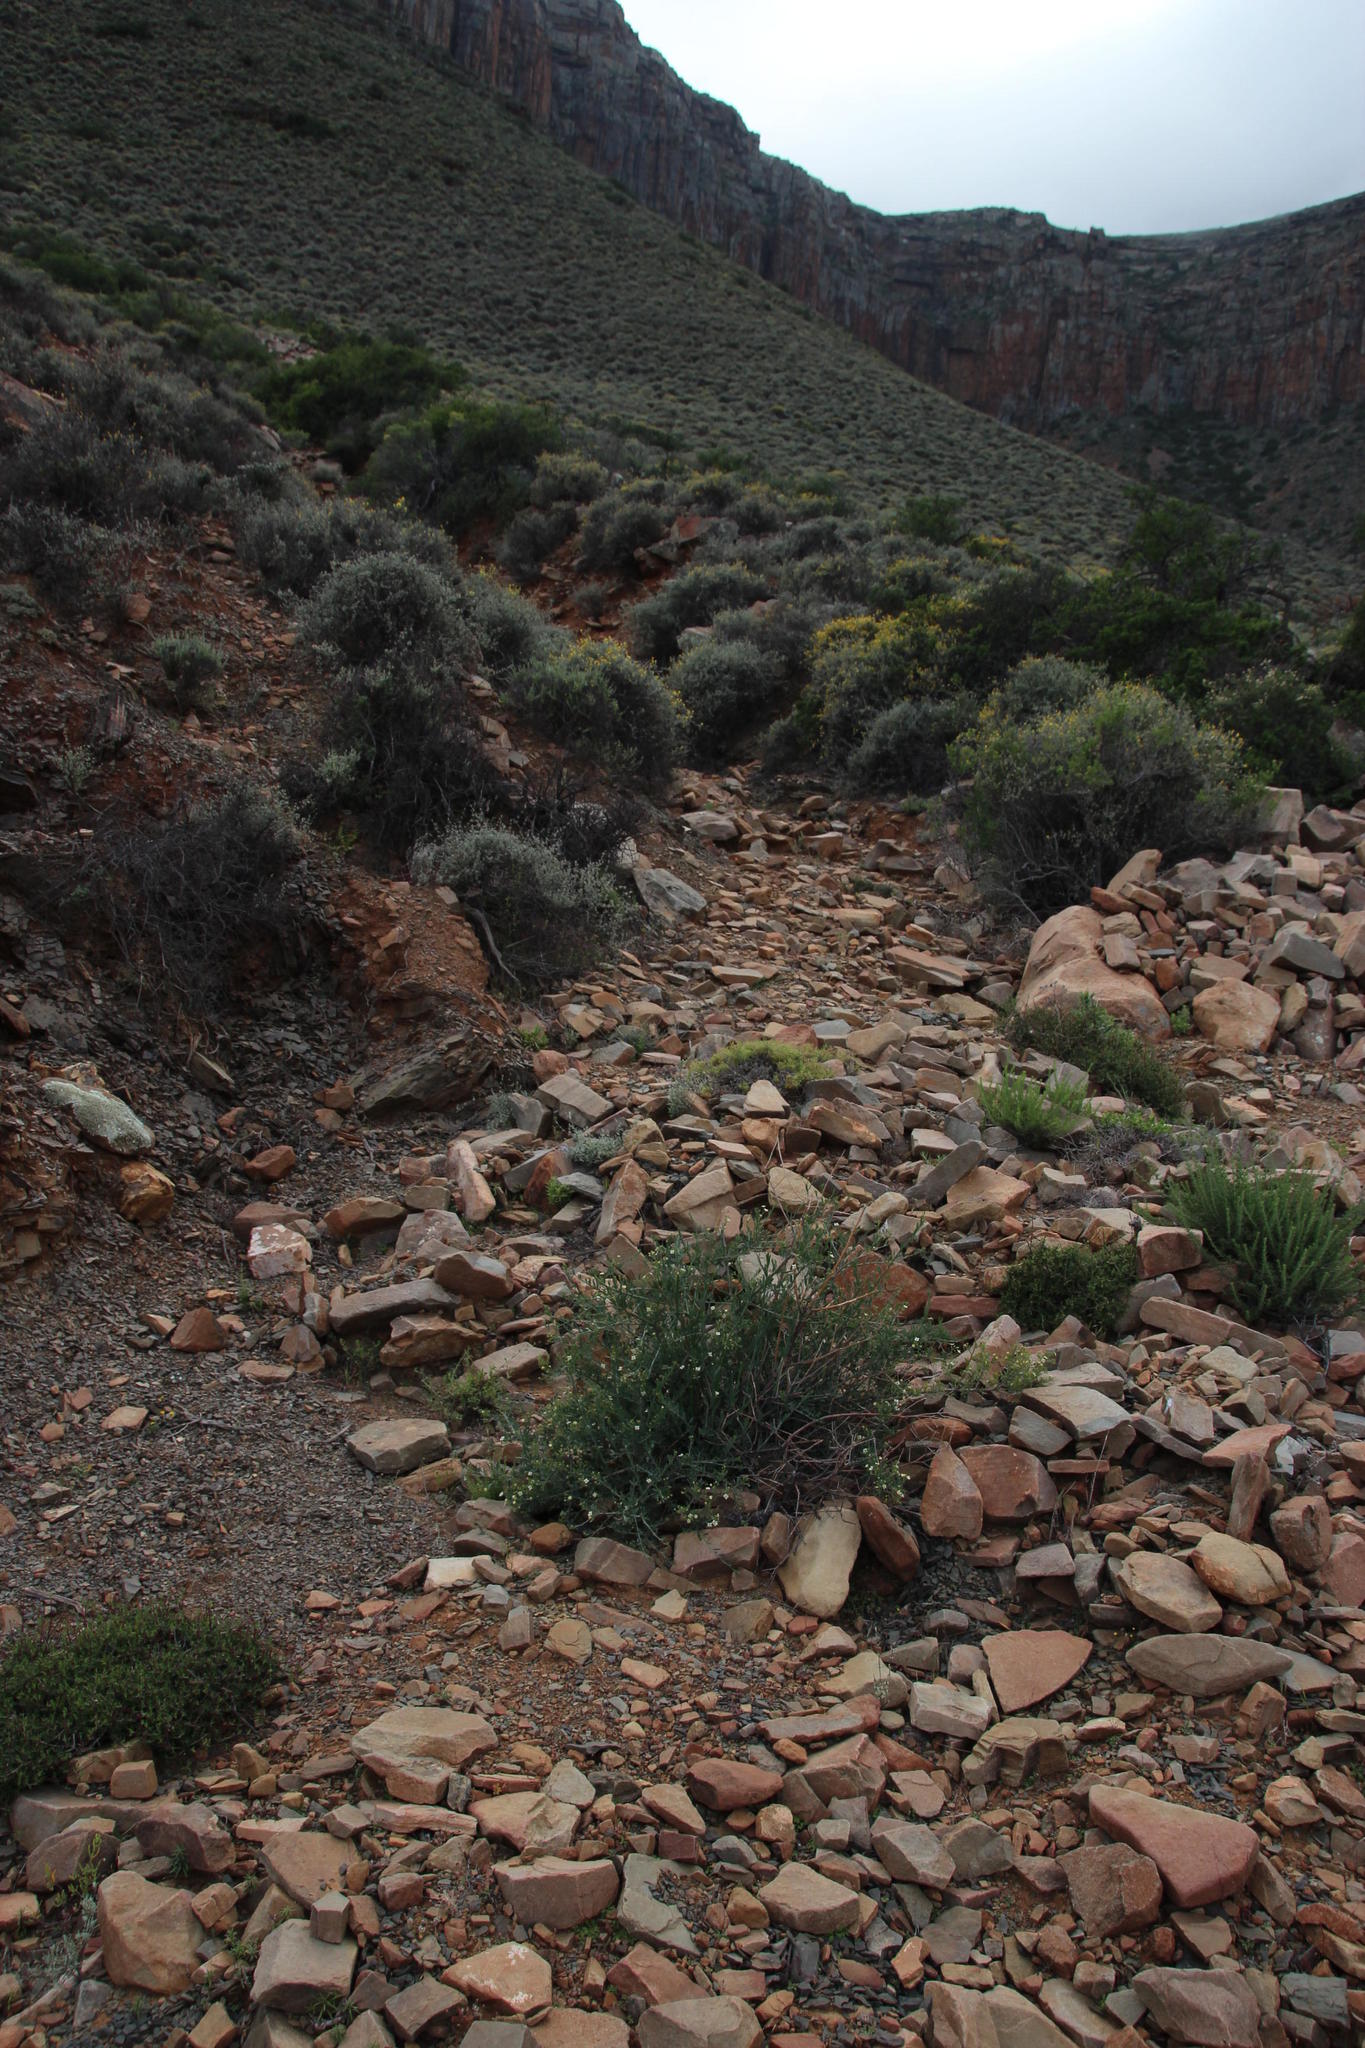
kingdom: Plantae
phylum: Tracheophyta
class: Magnoliopsida
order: Solanales
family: Montiniaceae
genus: Montinia
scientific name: Montinia caryophyllacea
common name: Wild clove-bush
